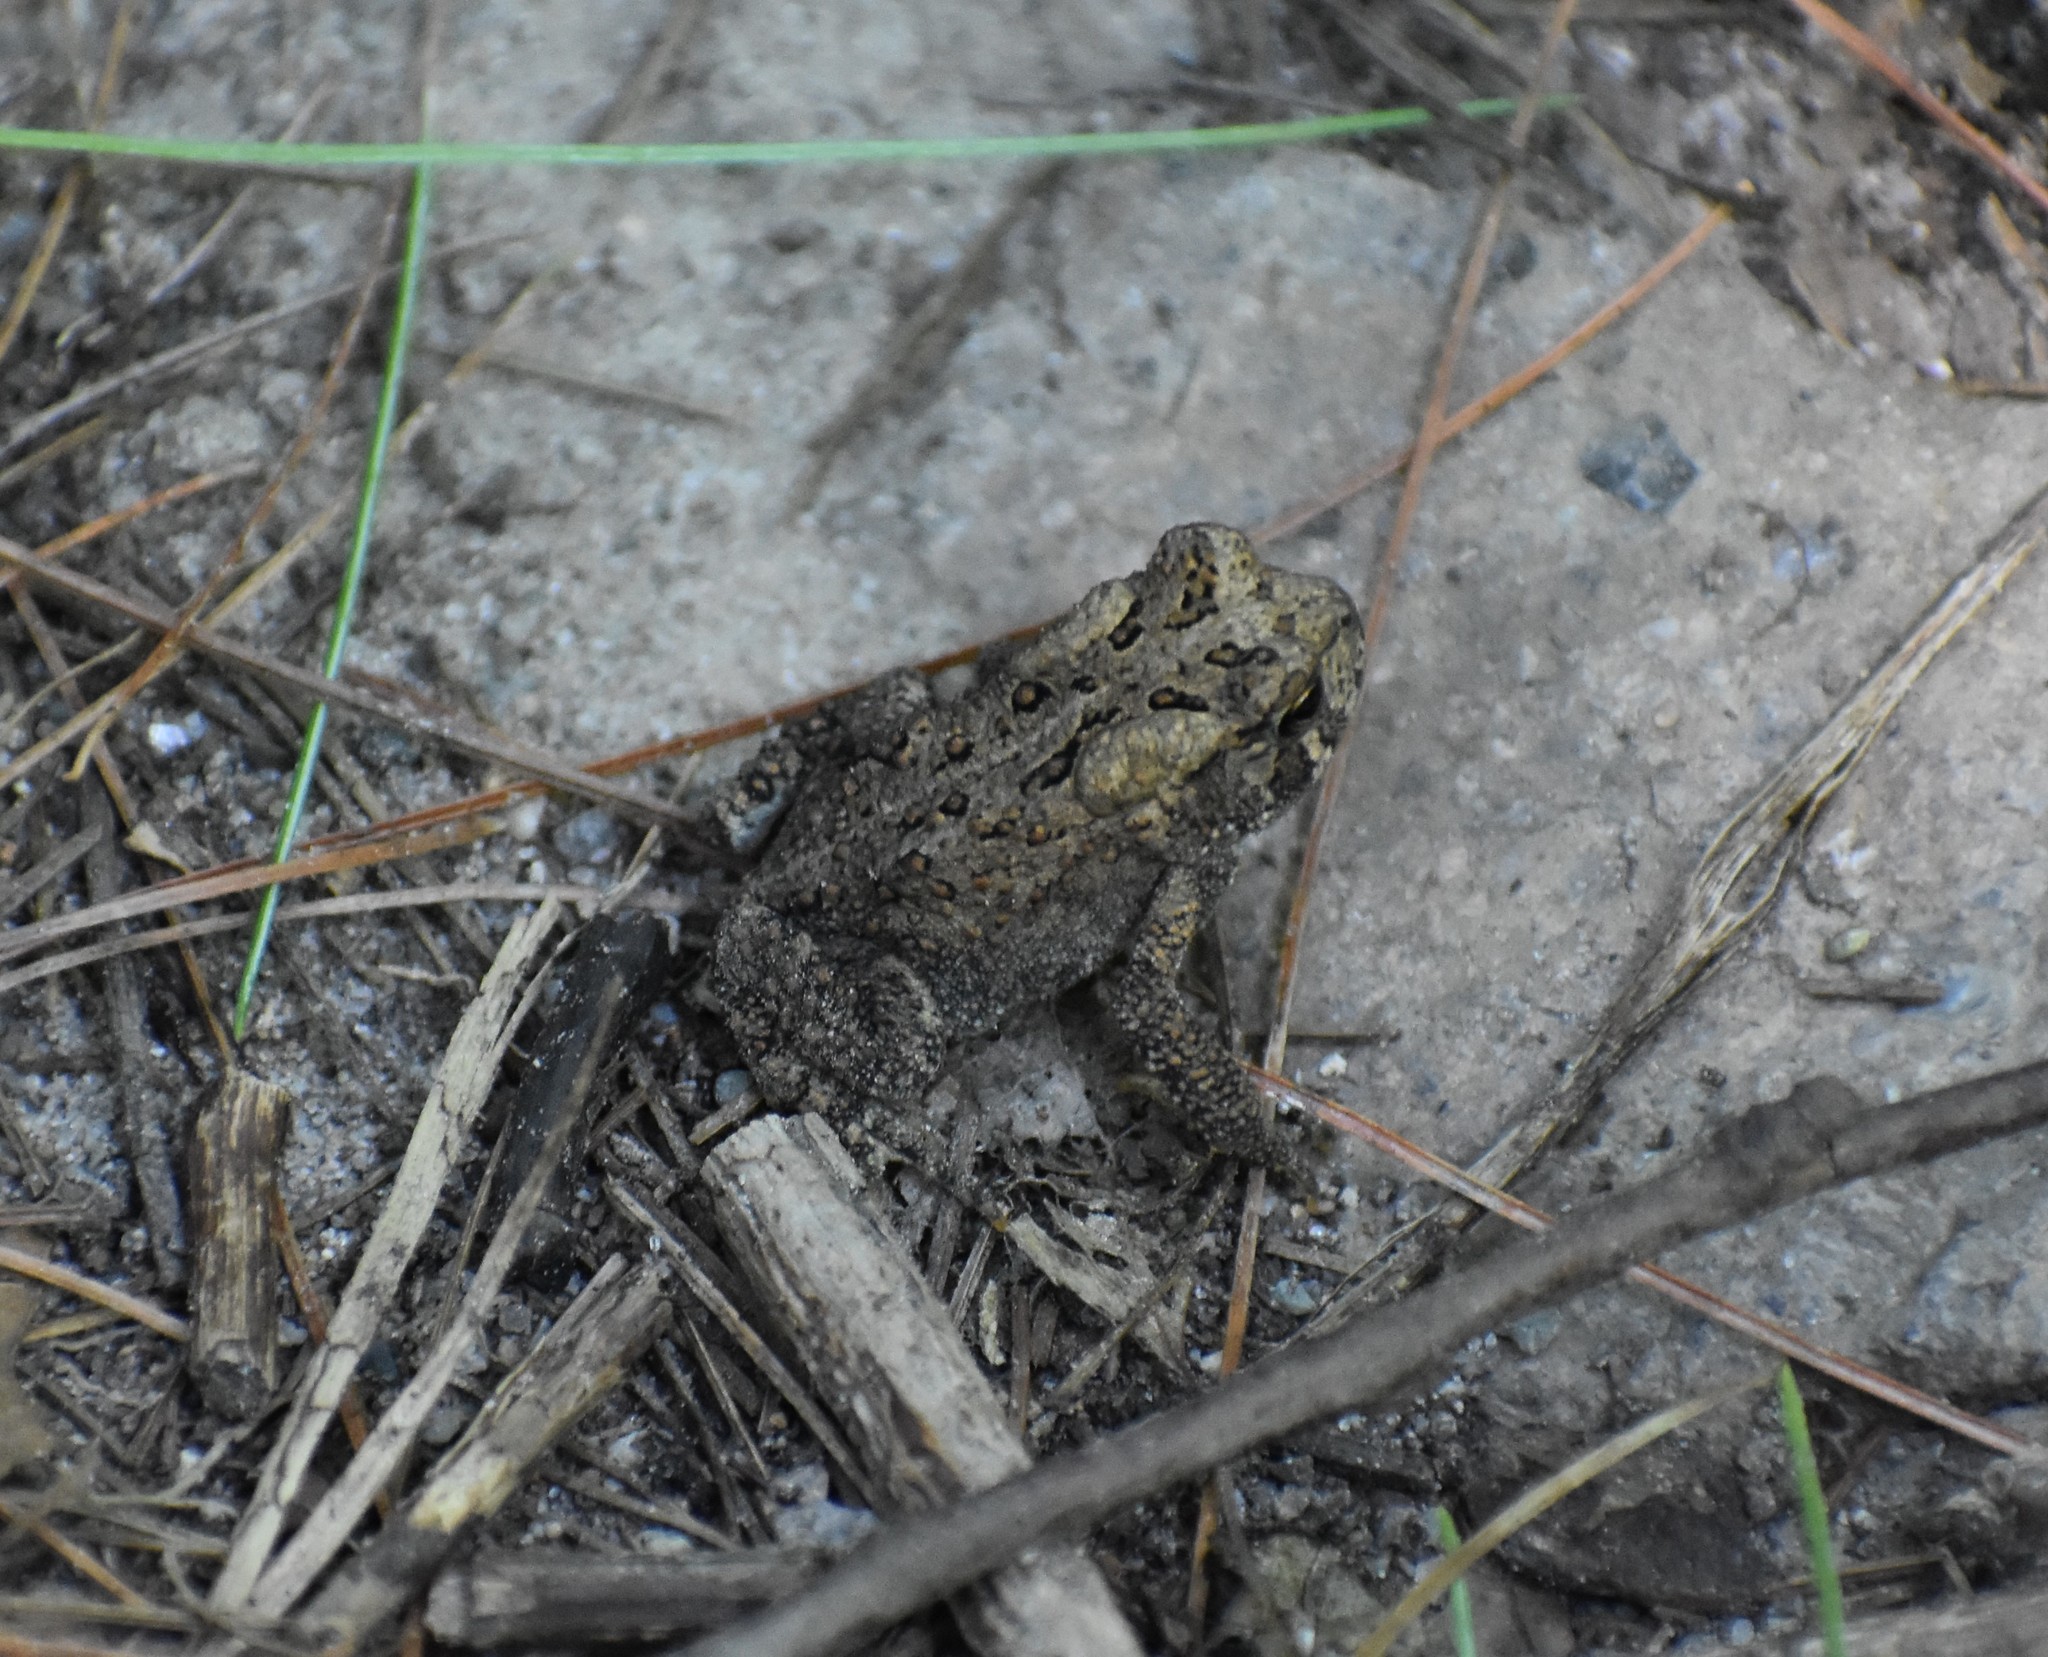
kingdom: Animalia
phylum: Chordata
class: Amphibia
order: Anura
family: Bufonidae
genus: Anaxyrus
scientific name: Anaxyrus americanus
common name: American toad
